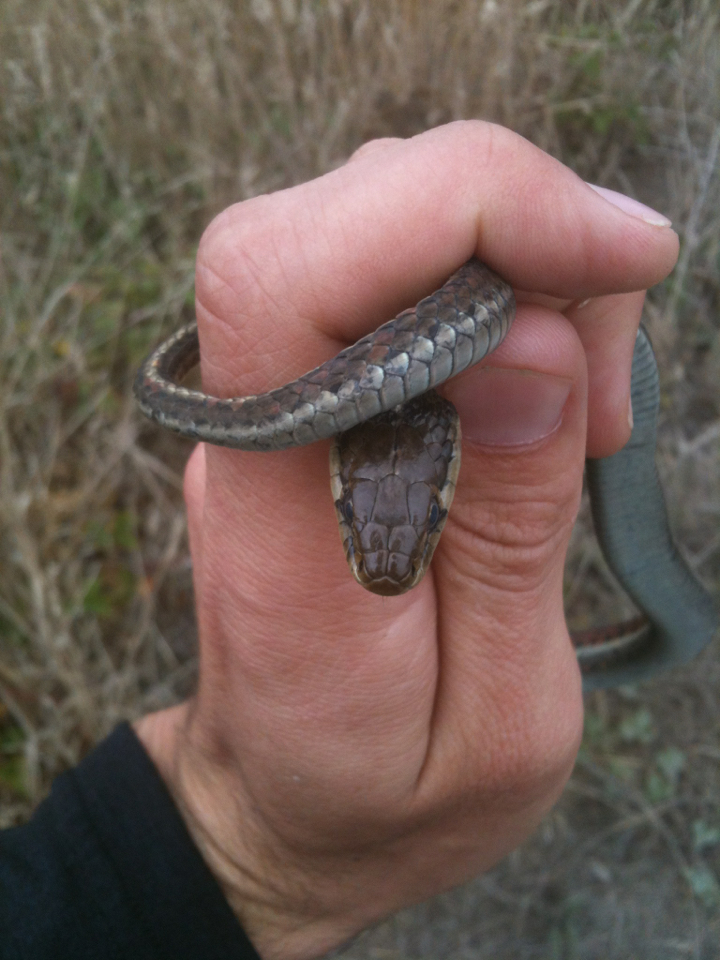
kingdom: Animalia
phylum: Chordata
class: Squamata
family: Colubridae
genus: Thamnophis
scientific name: Thamnophis elegans
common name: Western terrestrial garter snake
